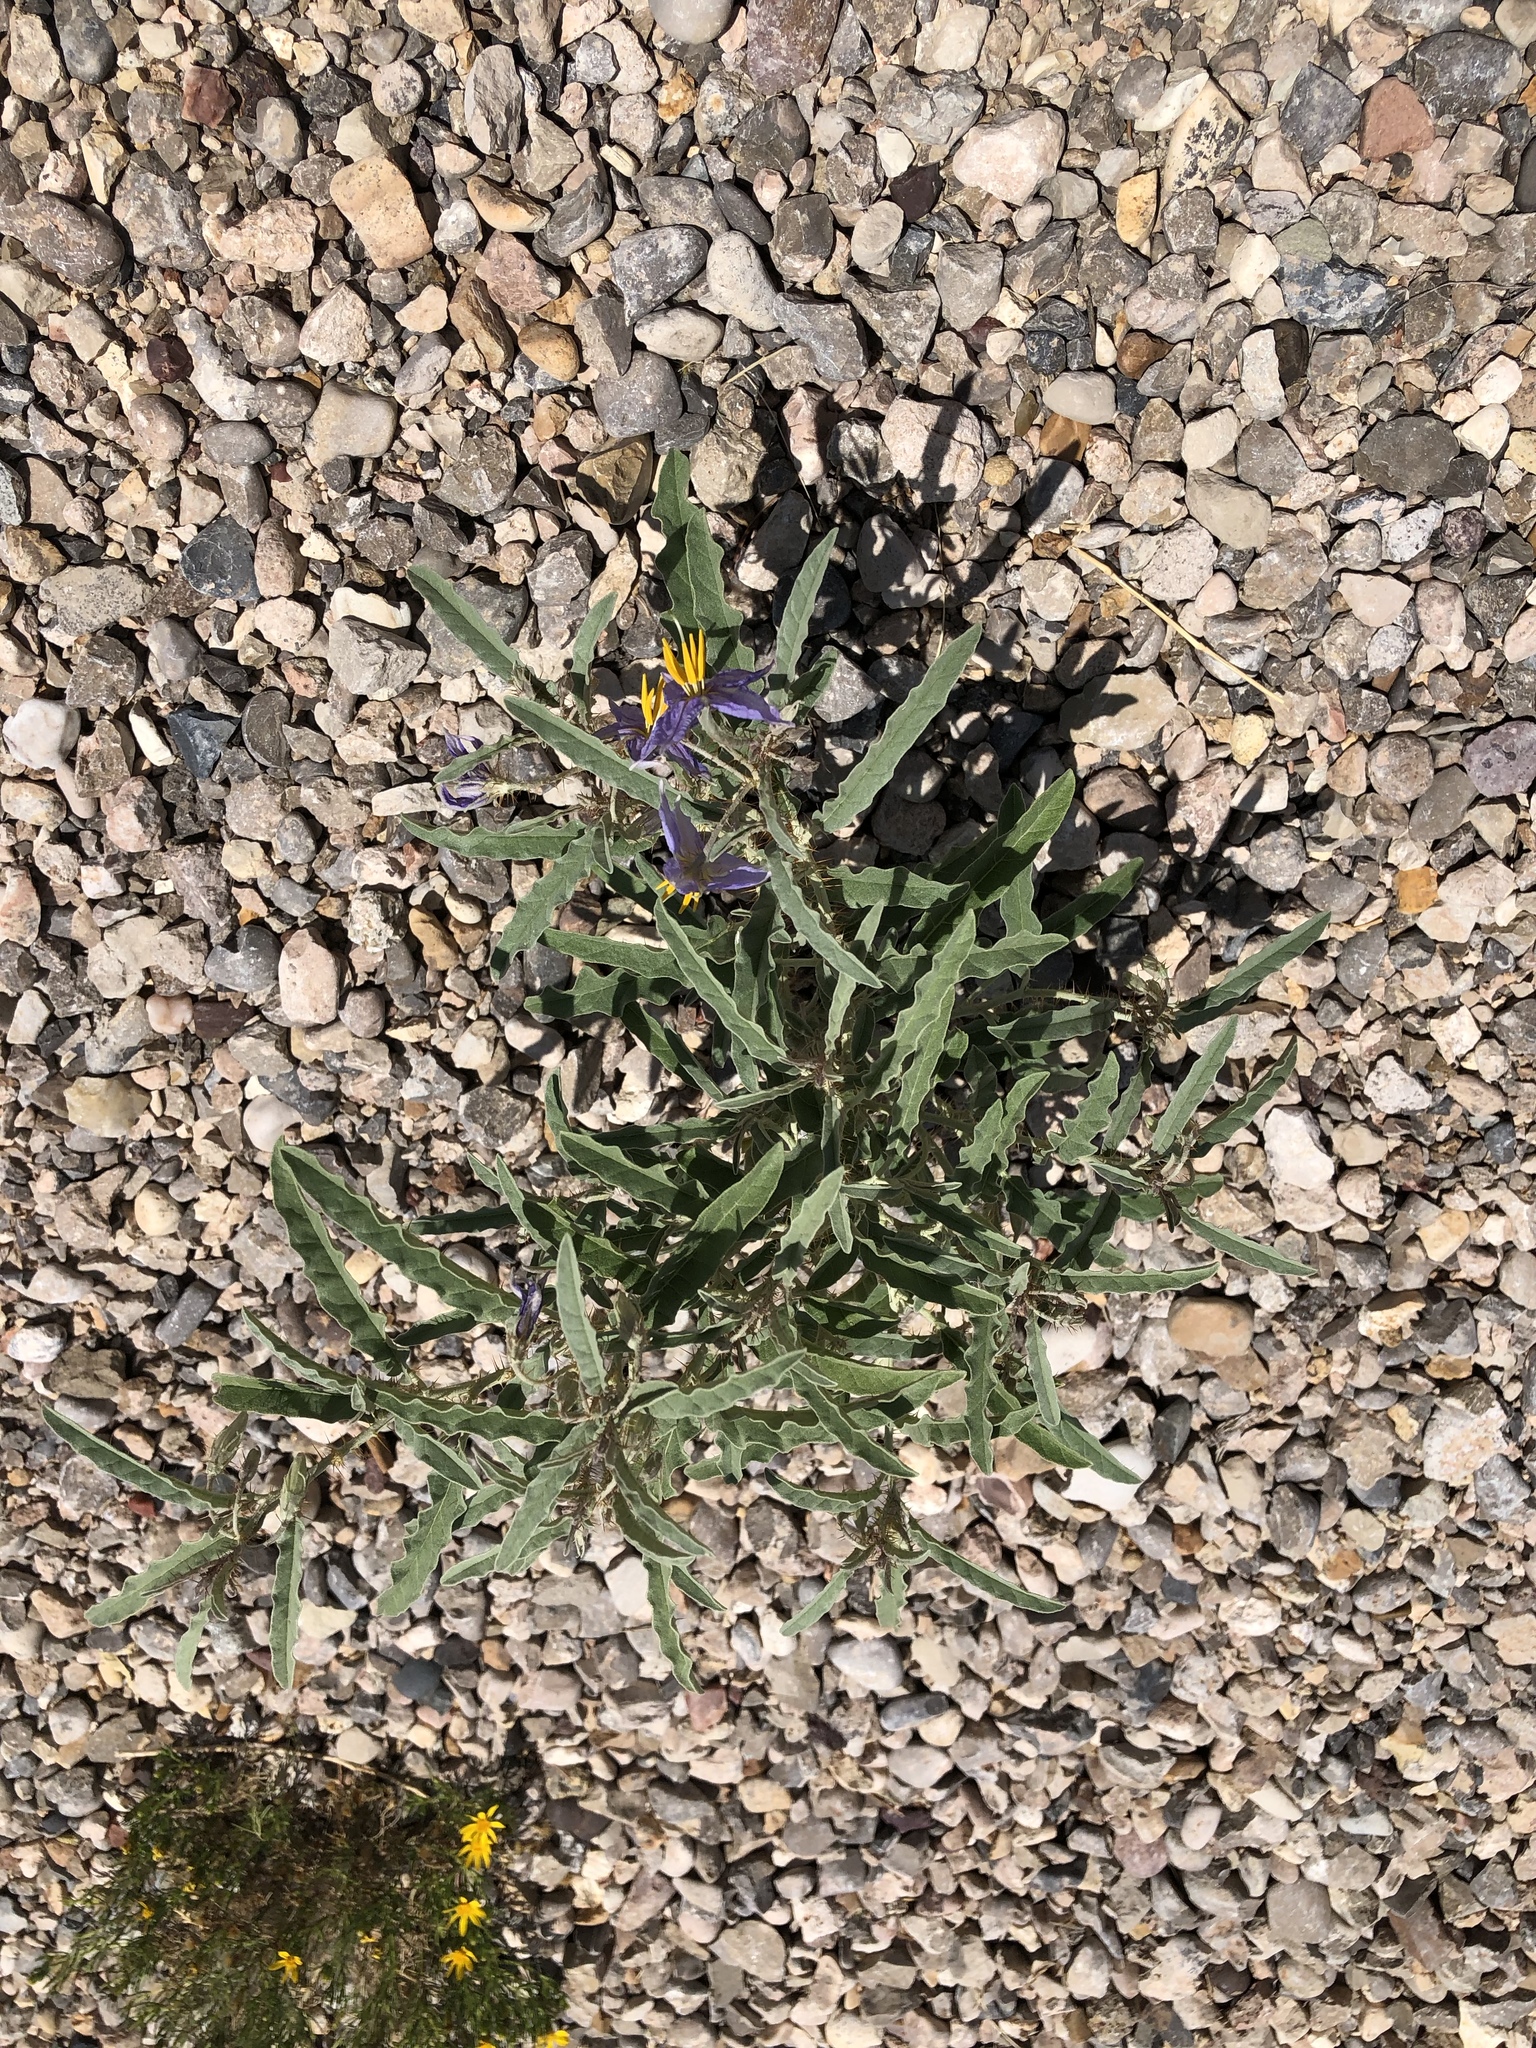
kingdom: Plantae
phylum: Tracheophyta
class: Magnoliopsida
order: Solanales
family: Solanaceae
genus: Solanum
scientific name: Solanum elaeagnifolium
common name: Silverleaf nightshade
